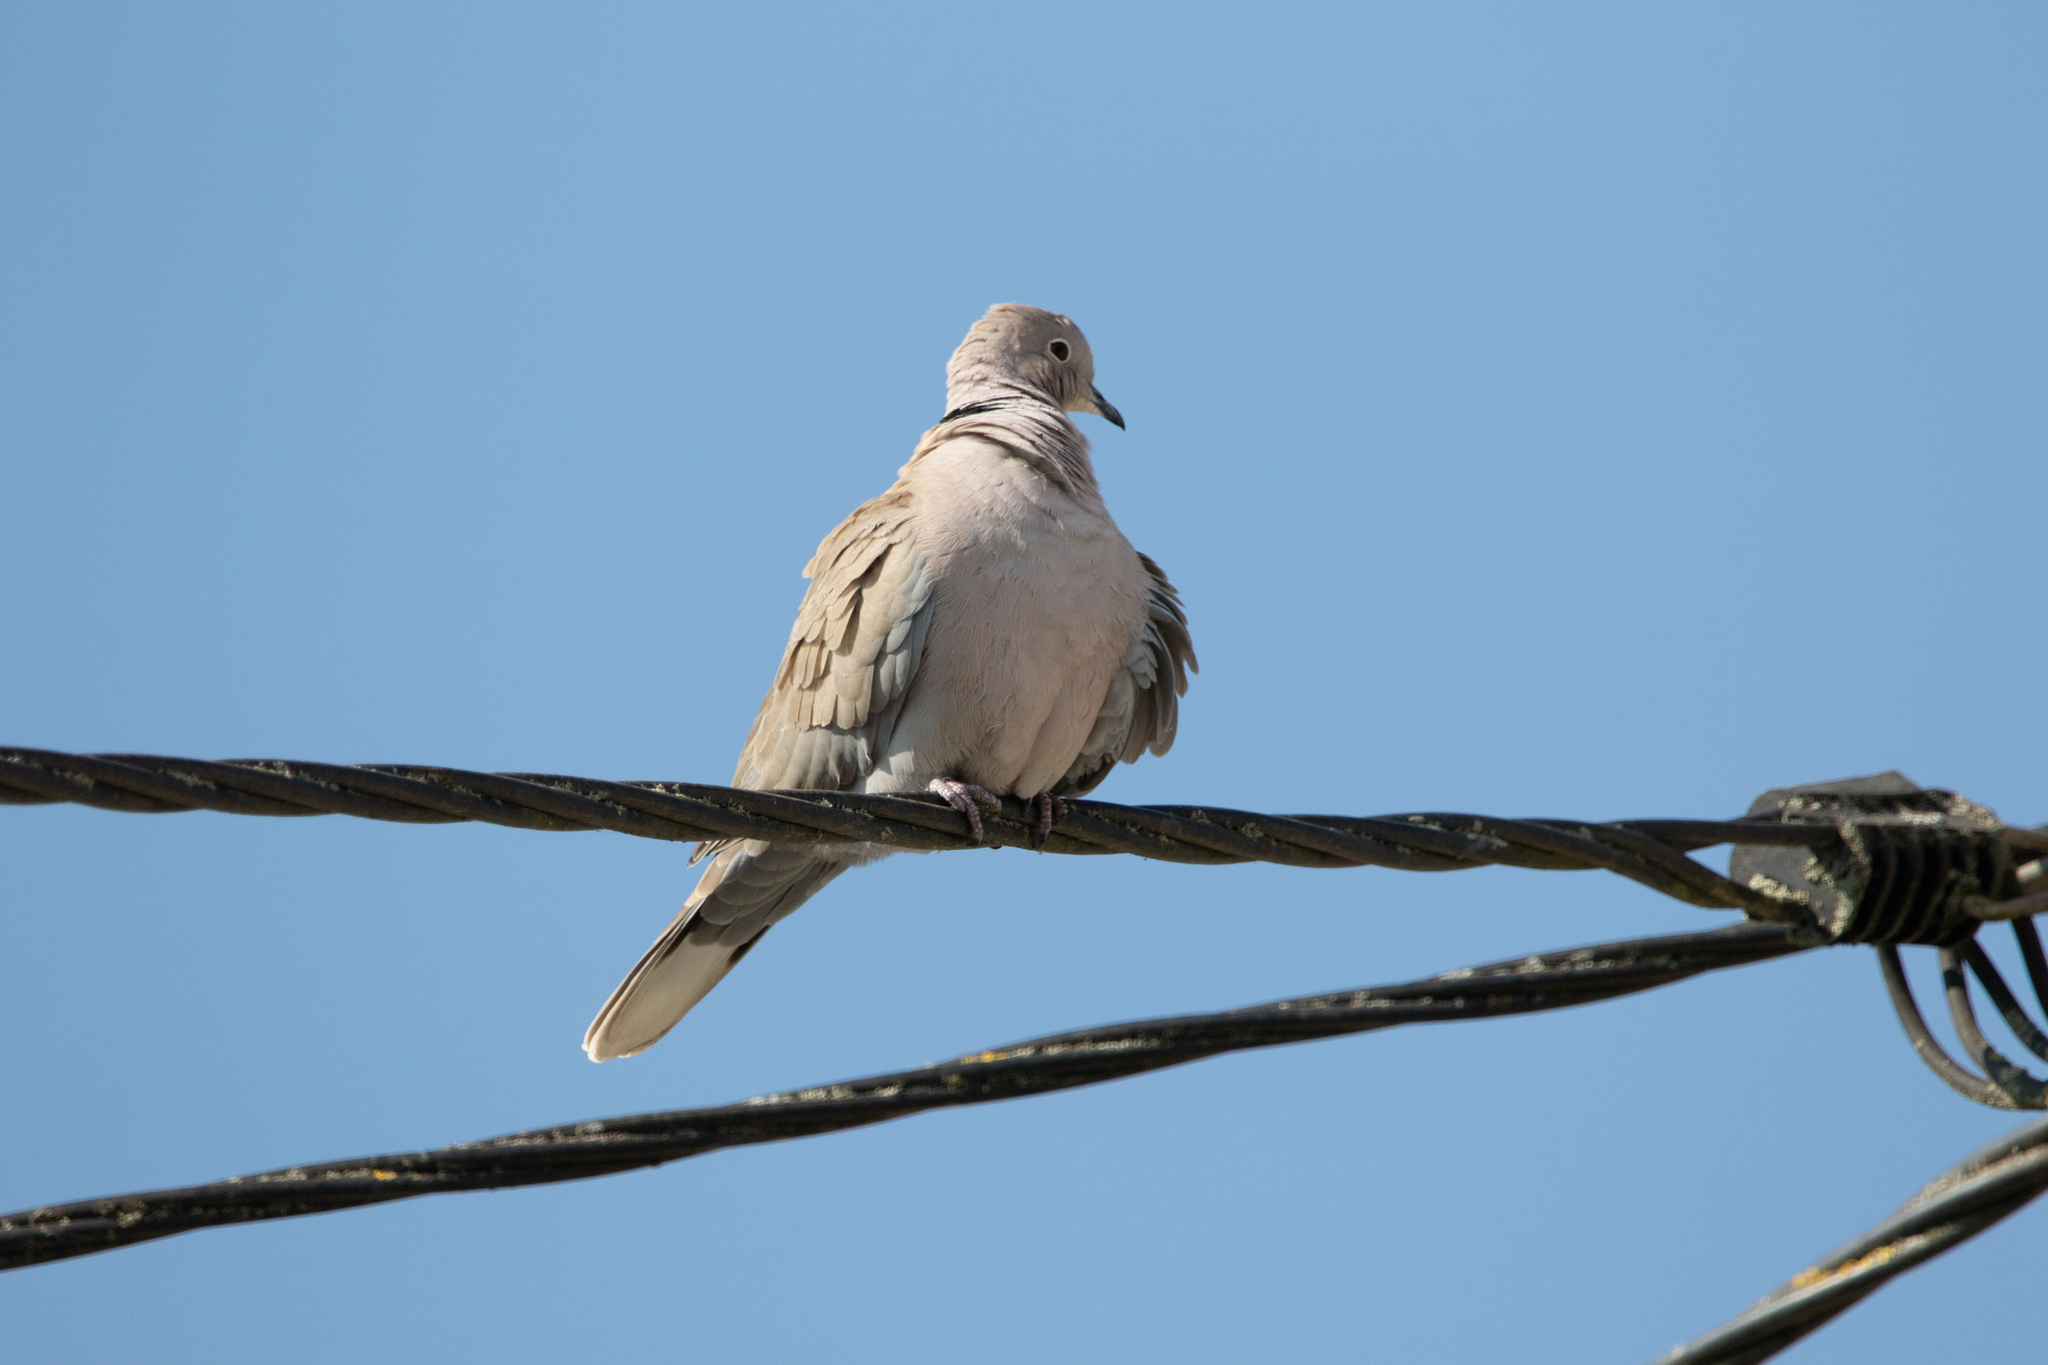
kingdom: Animalia
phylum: Chordata
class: Aves
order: Columbiformes
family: Columbidae
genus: Streptopelia
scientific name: Streptopelia decaocto
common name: Eurasian collared dove
